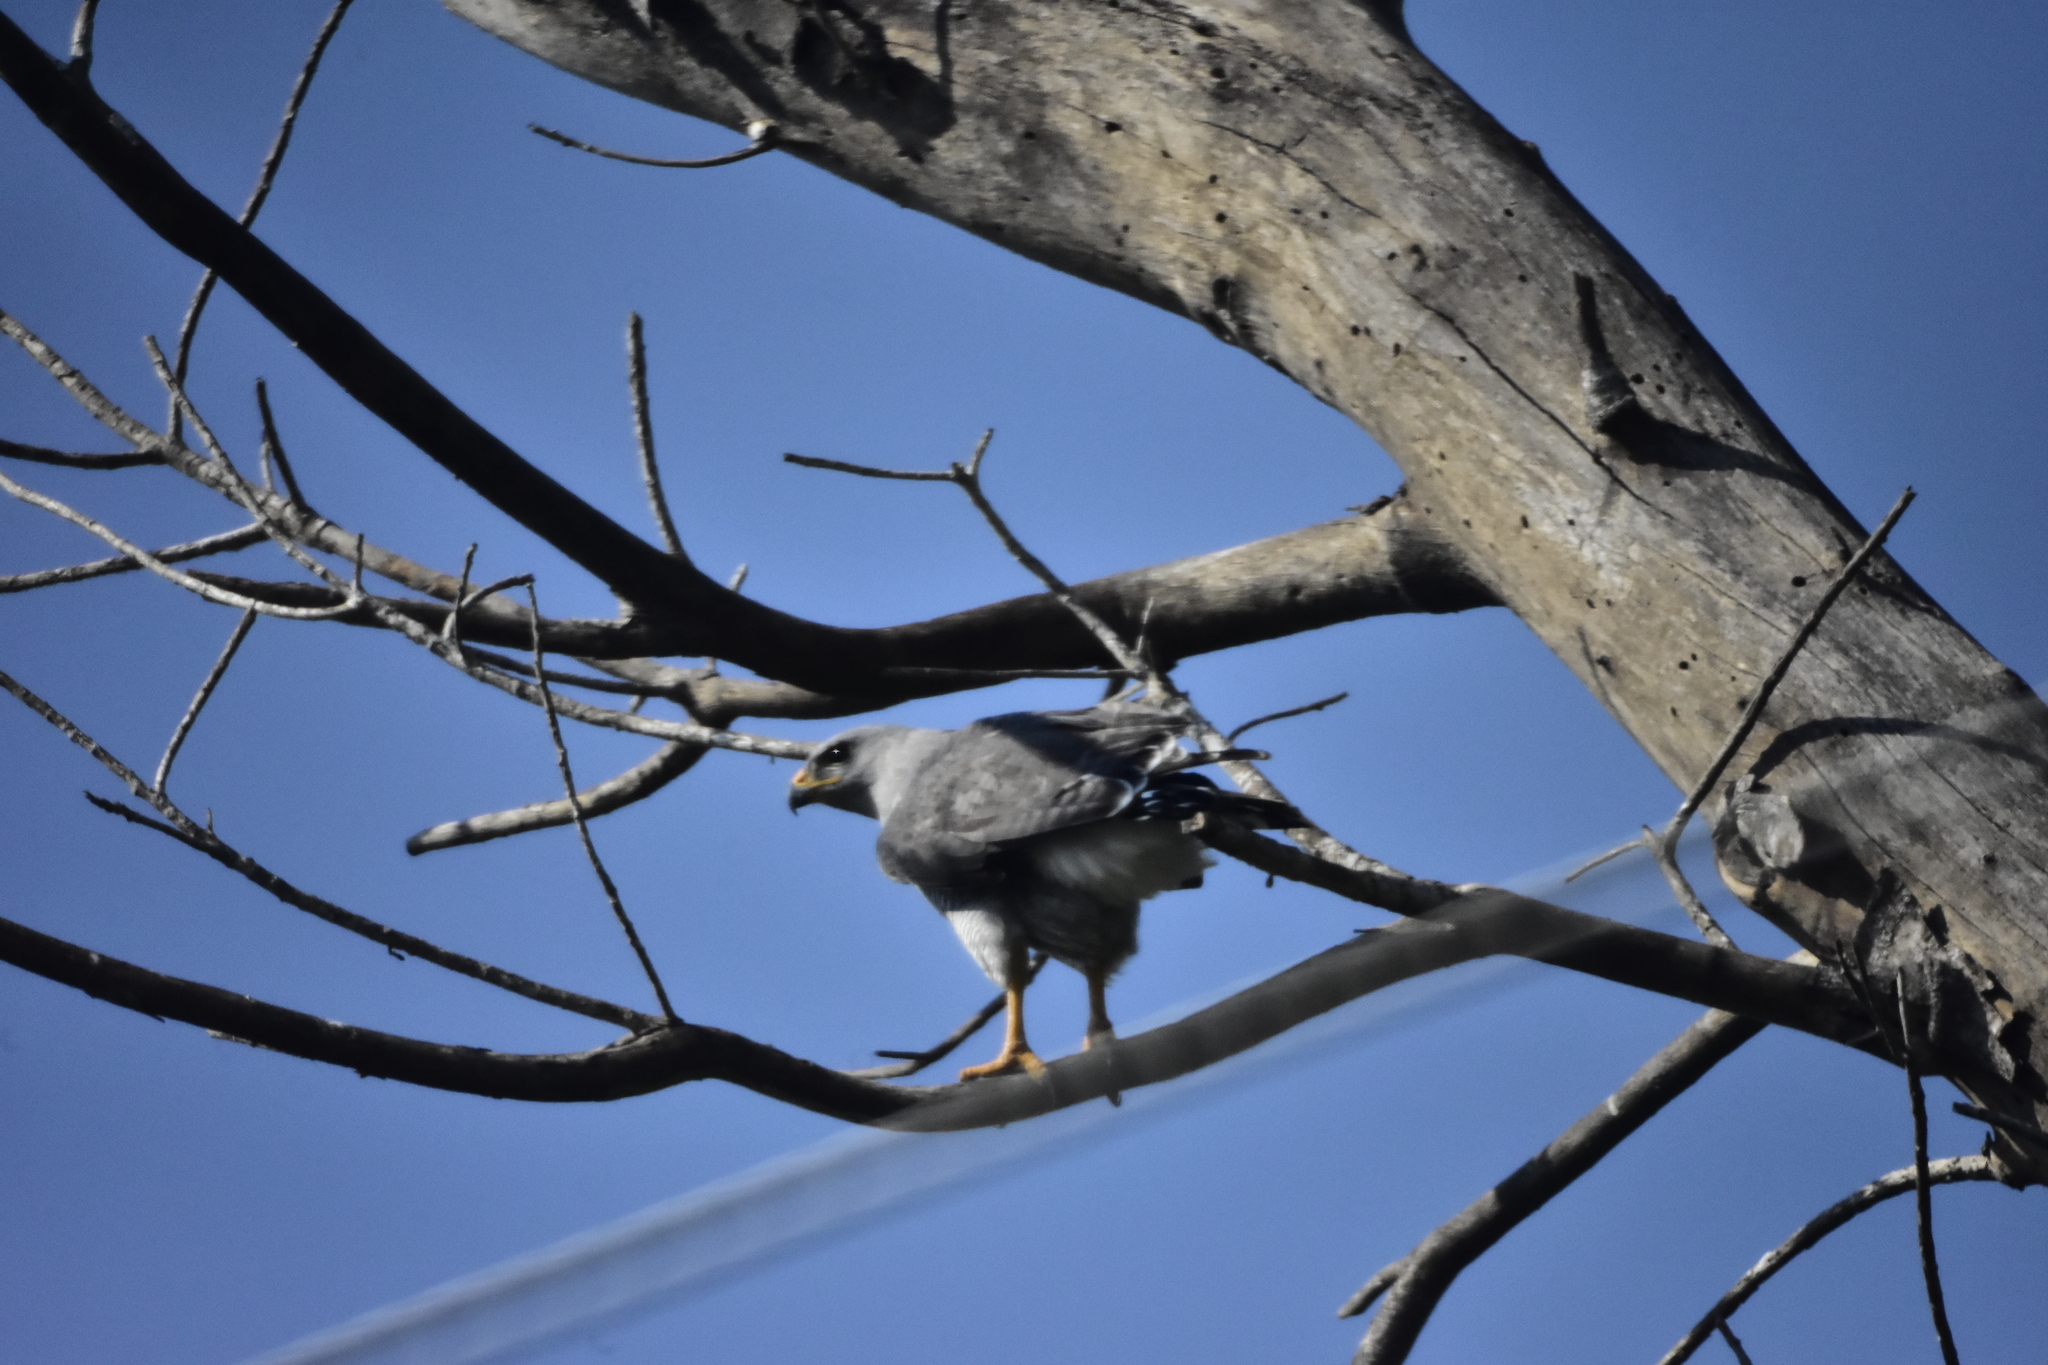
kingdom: Animalia
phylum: Chordata
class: Aves
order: Accipitriformes
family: Accipitridae
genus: Buteo
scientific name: Buteo nitidus
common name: Grey-lined hawk
